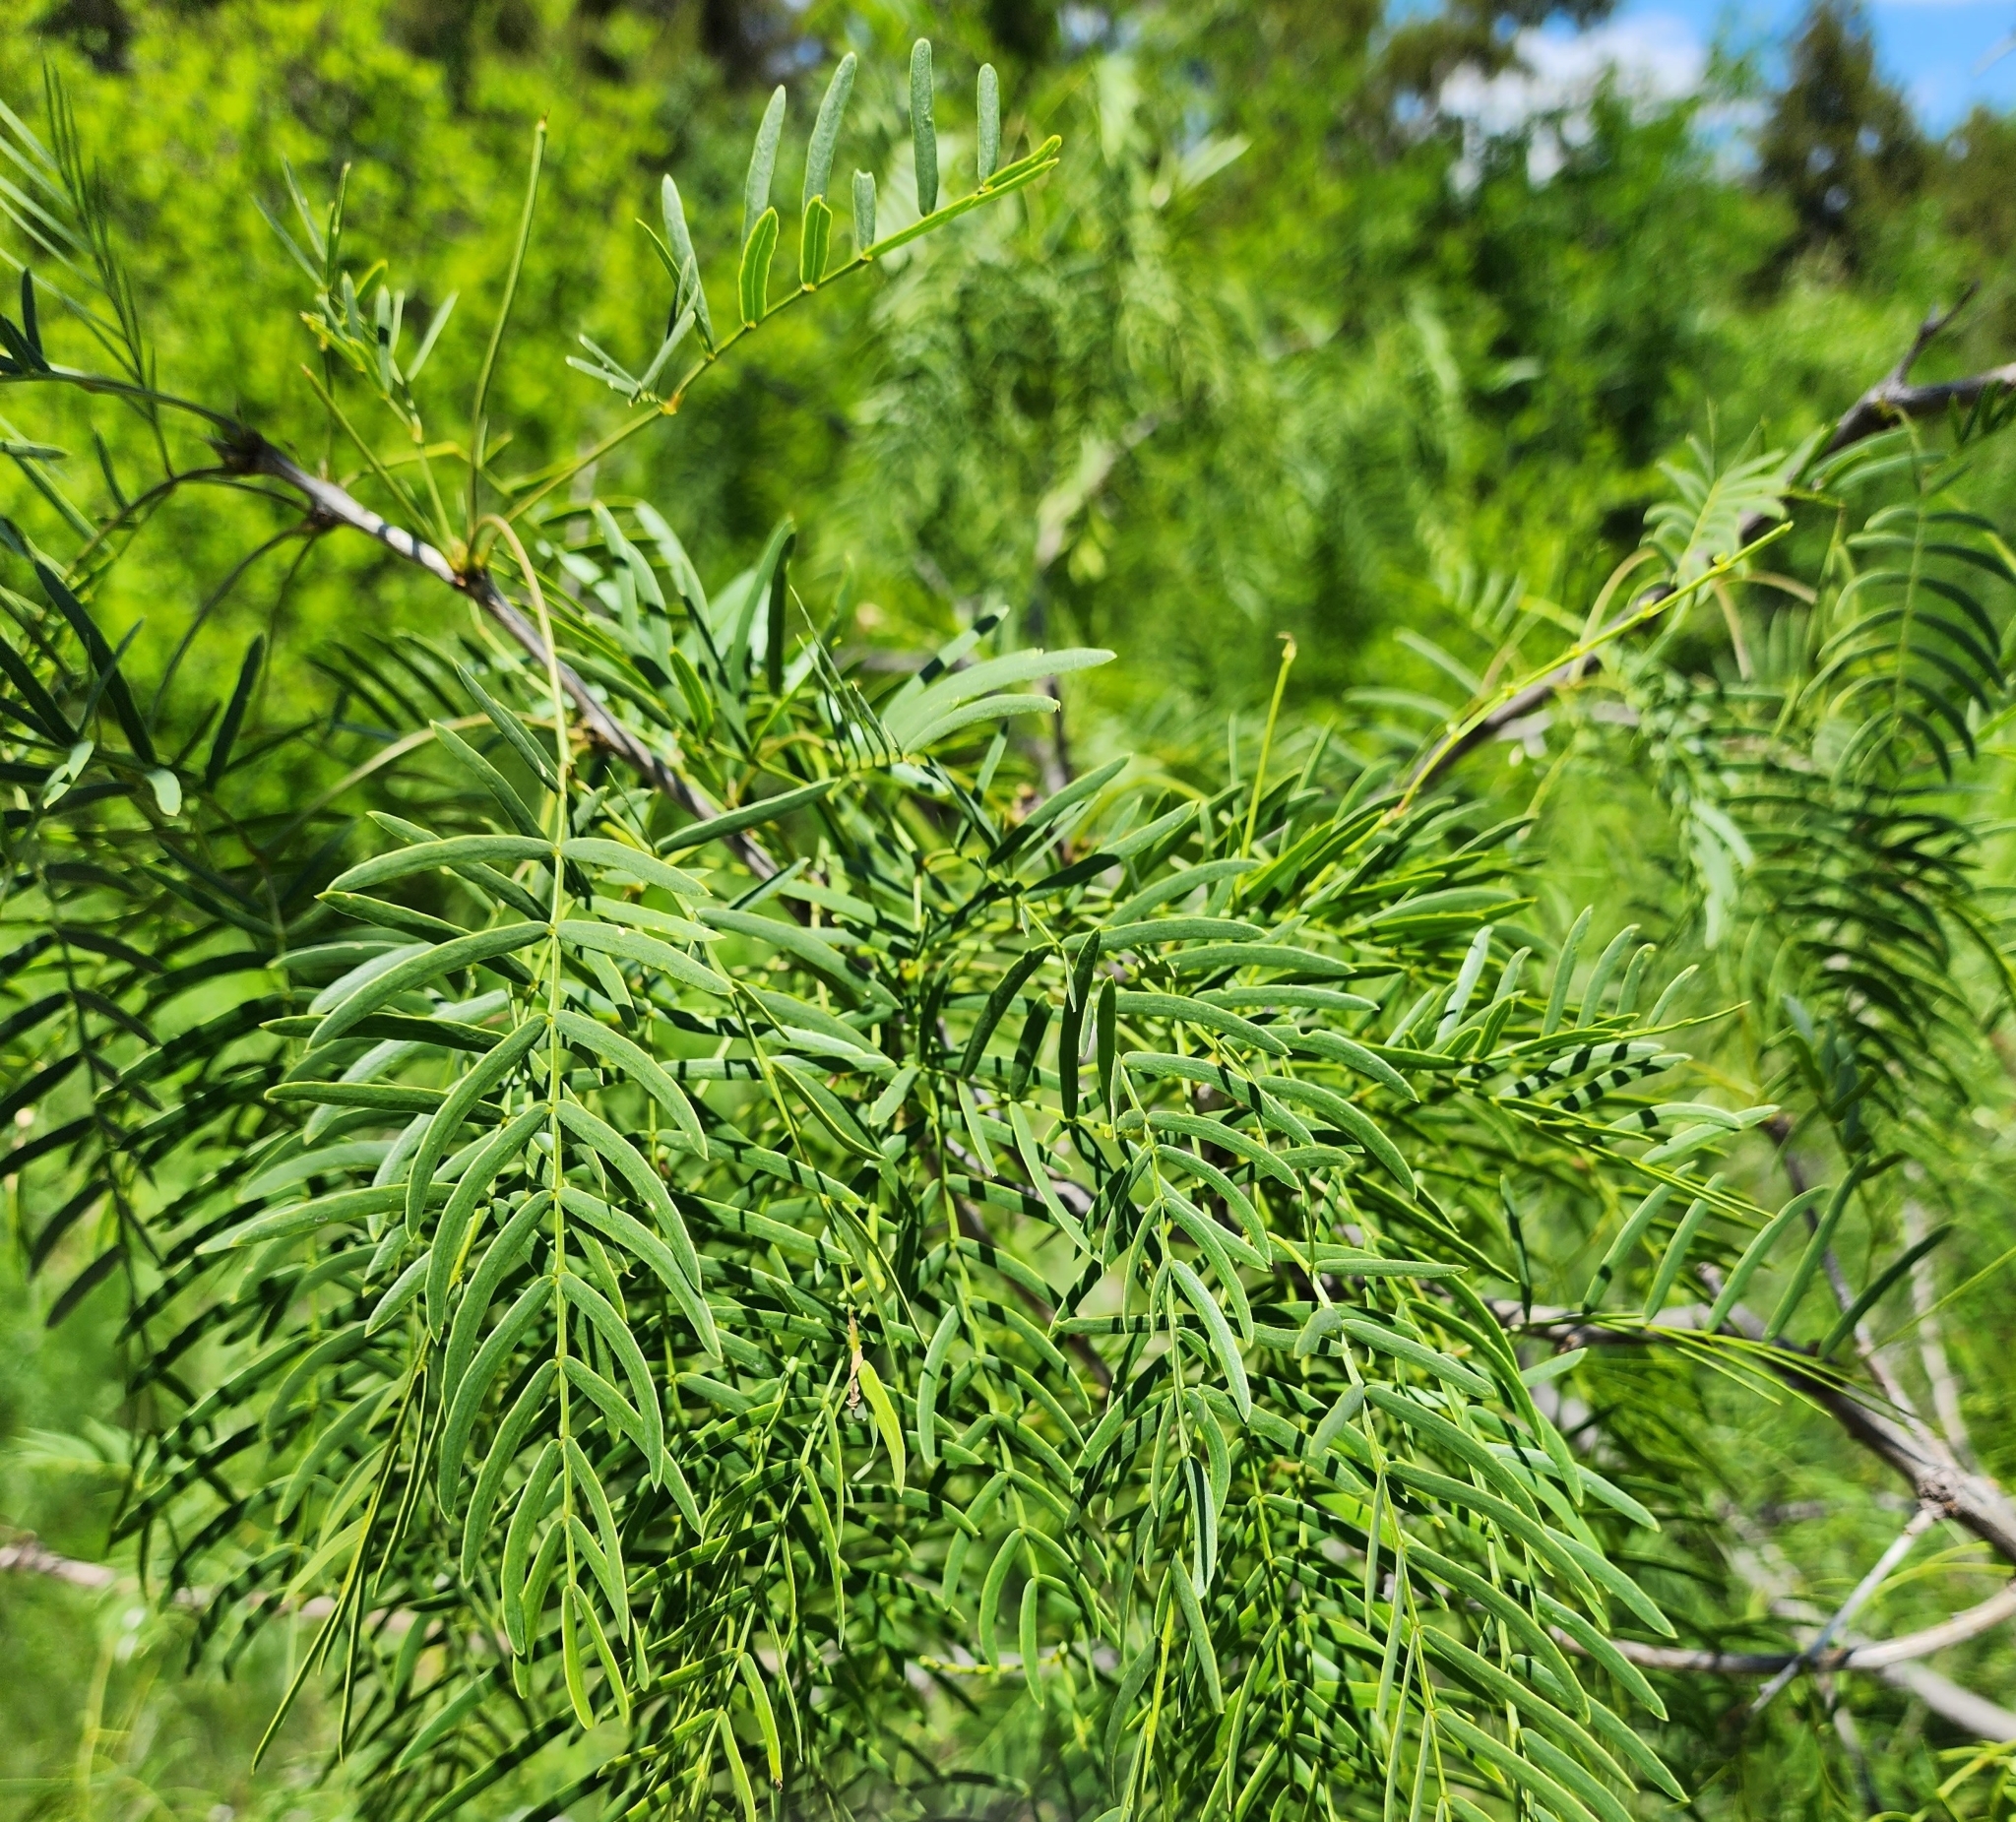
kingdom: Plantae
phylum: Tracheophyta
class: Magnoliopsida
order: Fabales
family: Fabaceae
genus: Prosopis
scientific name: Prosopis glandulosa
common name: Honey mesquite
